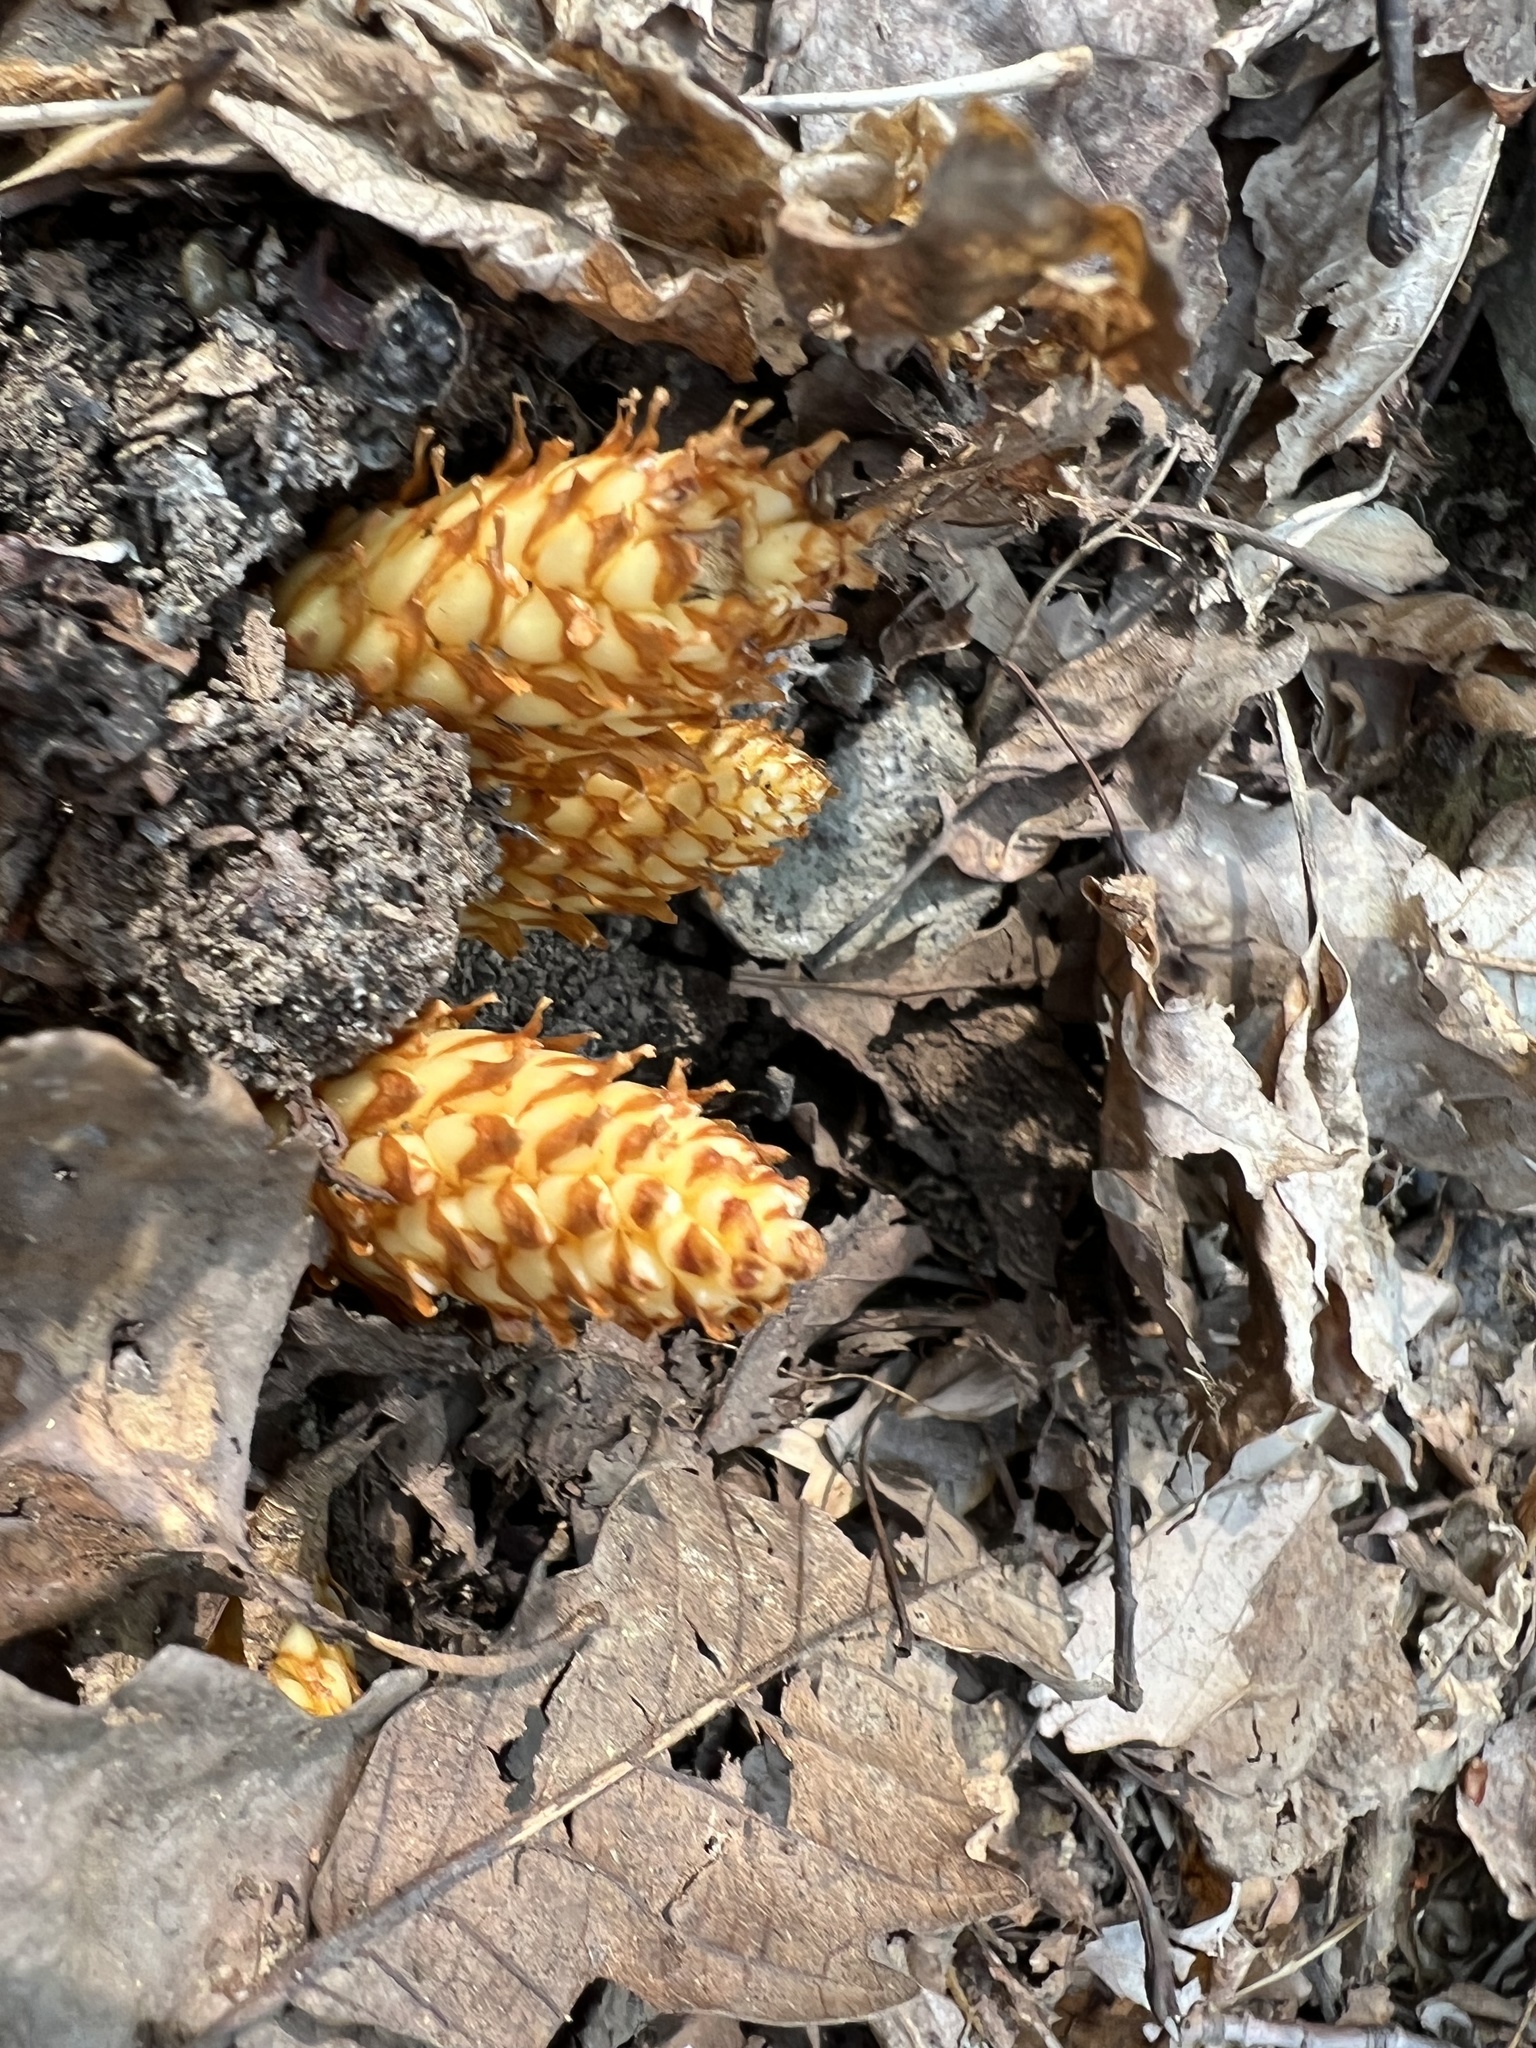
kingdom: Plantae
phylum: Tracheophyta
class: Magnoliopsida
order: Lamiales
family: Orobanchaceae
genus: Conopholis
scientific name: Conopholis americana
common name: American cancer-root
